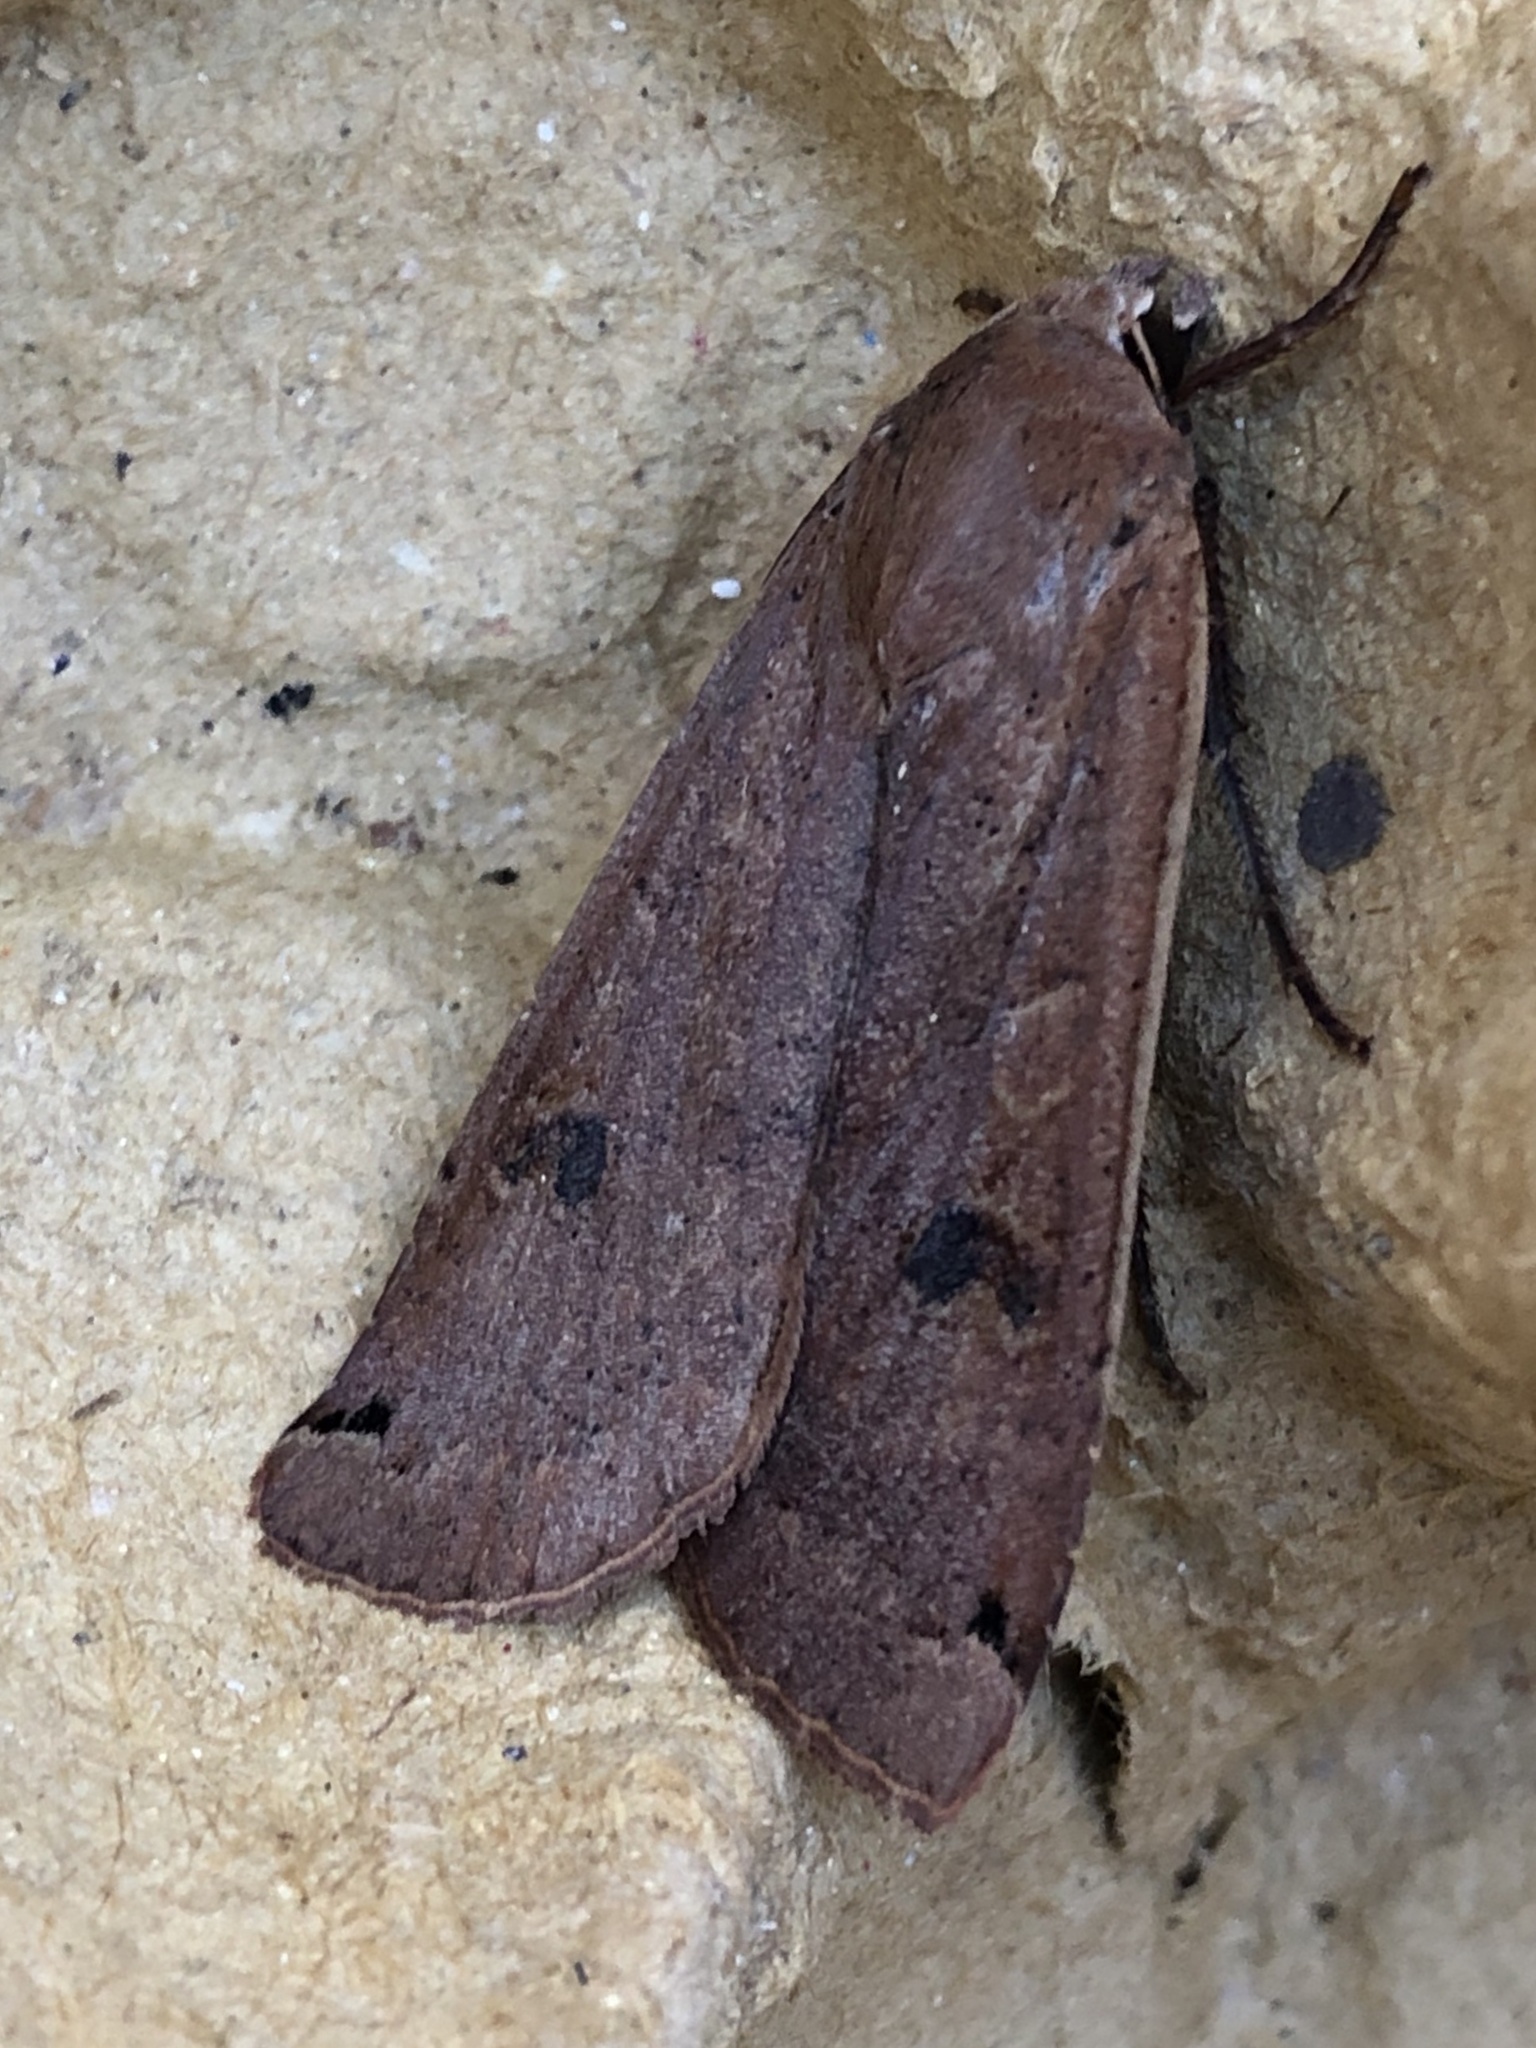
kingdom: Animalia
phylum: Arthropoda
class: Insecta
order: Lepidoptera
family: Noctuidae
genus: Noctua
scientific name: Noctua pronuba
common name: Large yellow underwing
